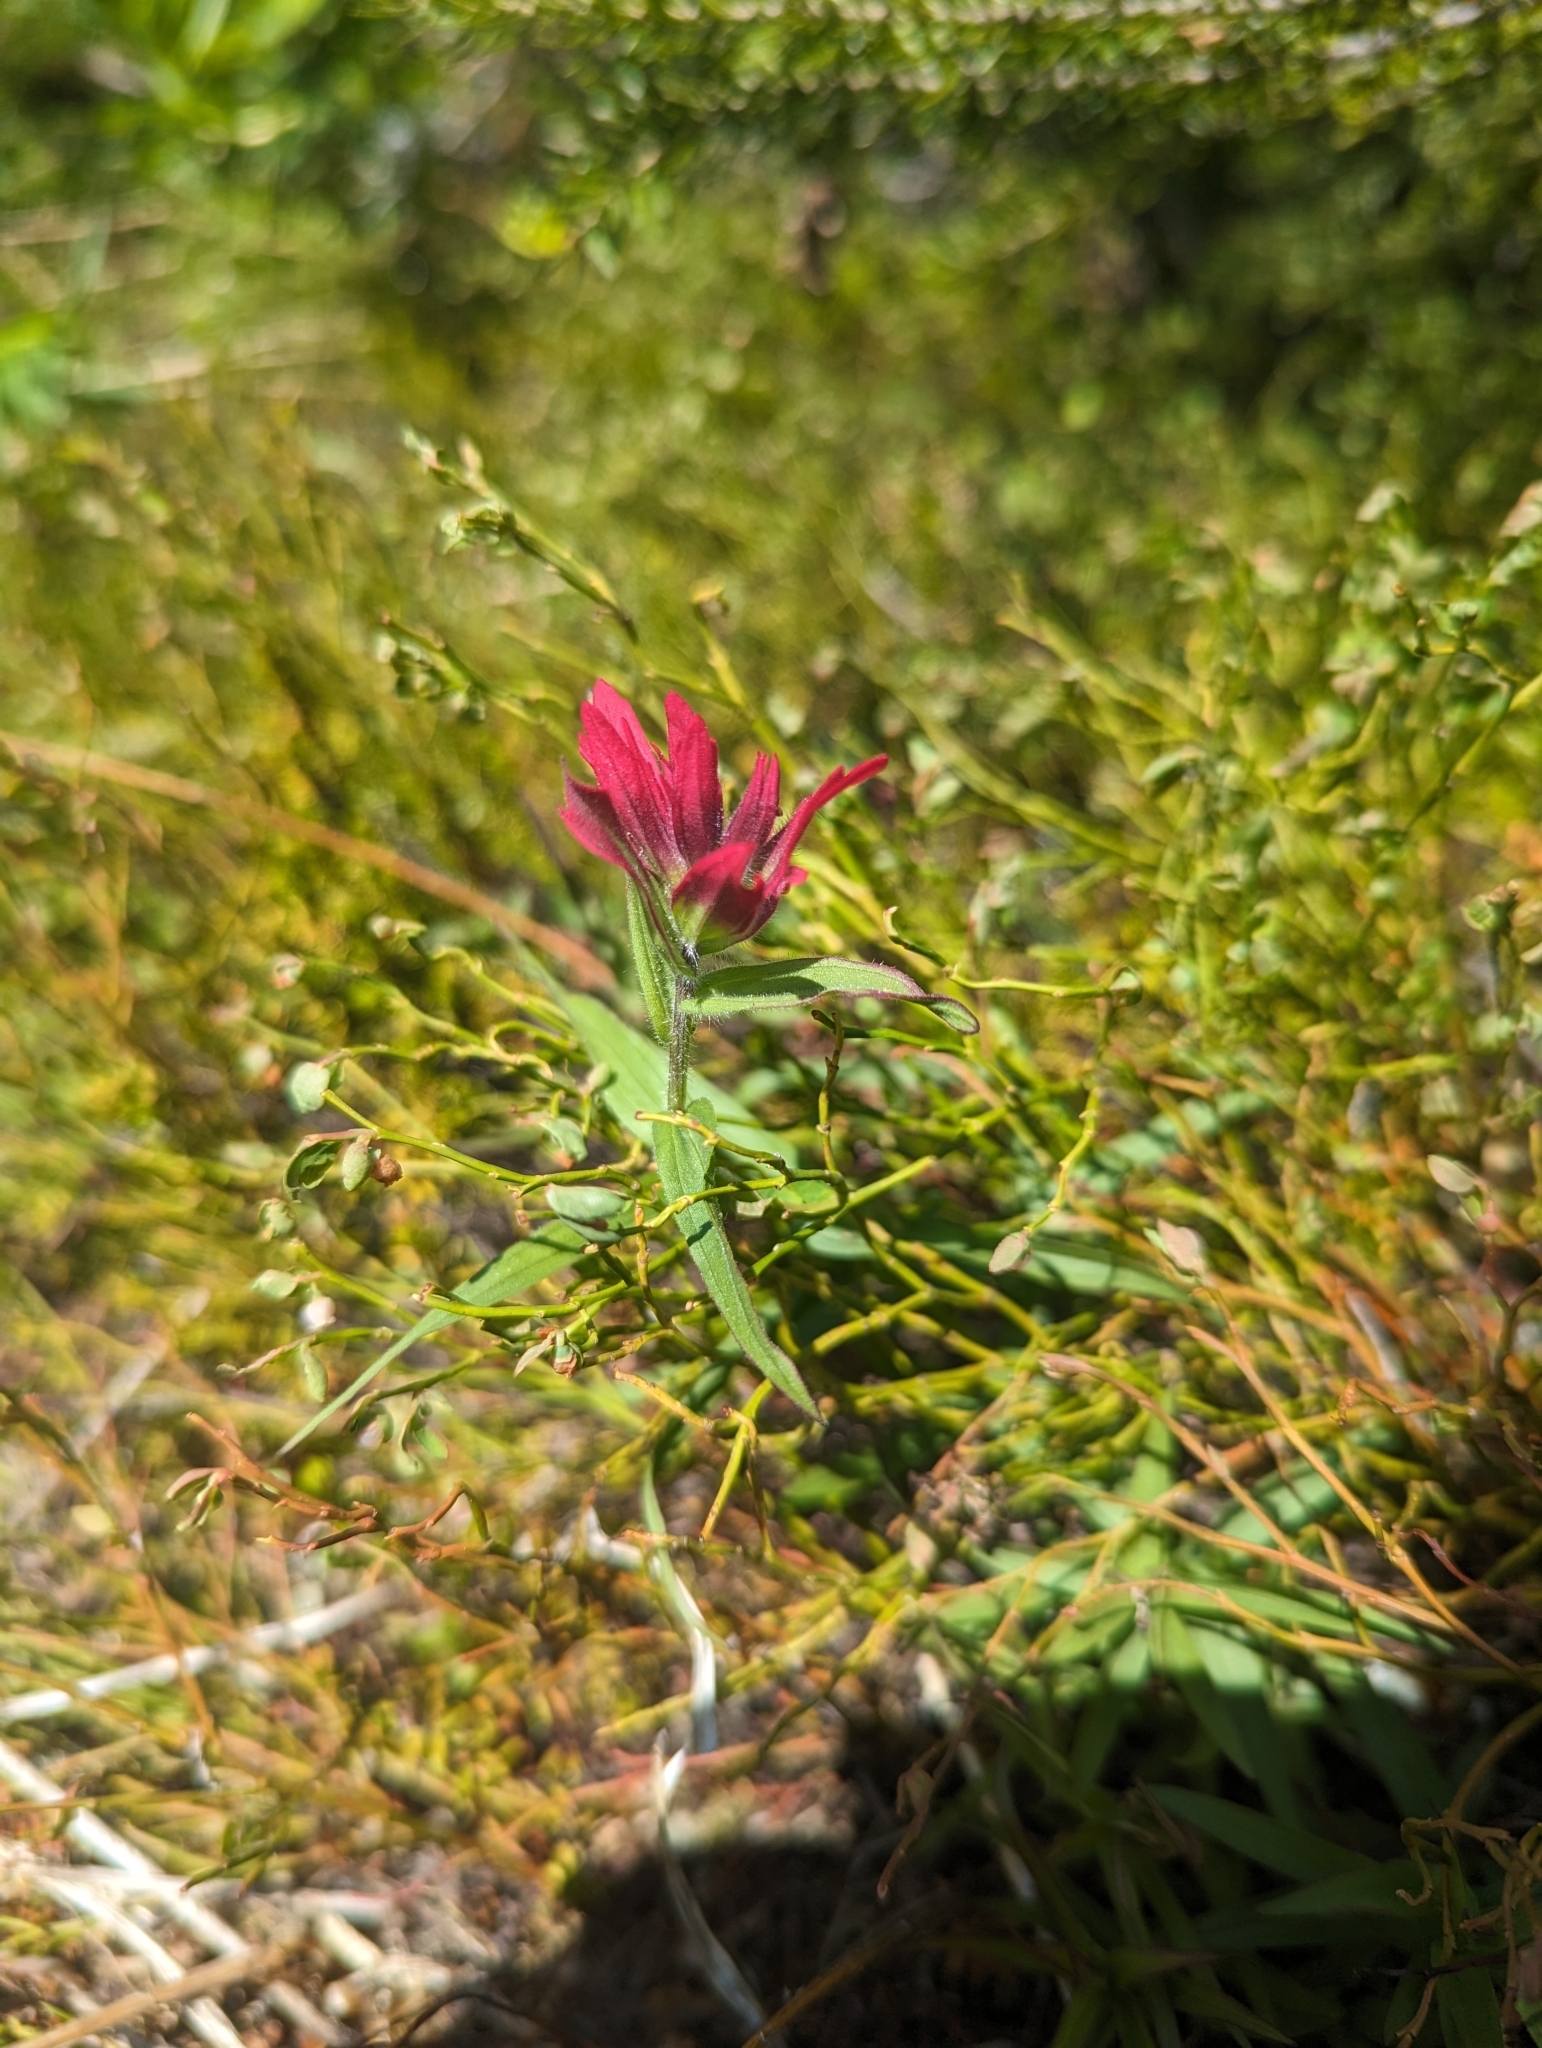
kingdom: Plantae
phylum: Tracheophyta
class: Magnoliopsida
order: Lamiales
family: Orobanchaceae
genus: Castilleja
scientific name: Castilleja rhexifolia
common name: Rocky mountain paintbrush
